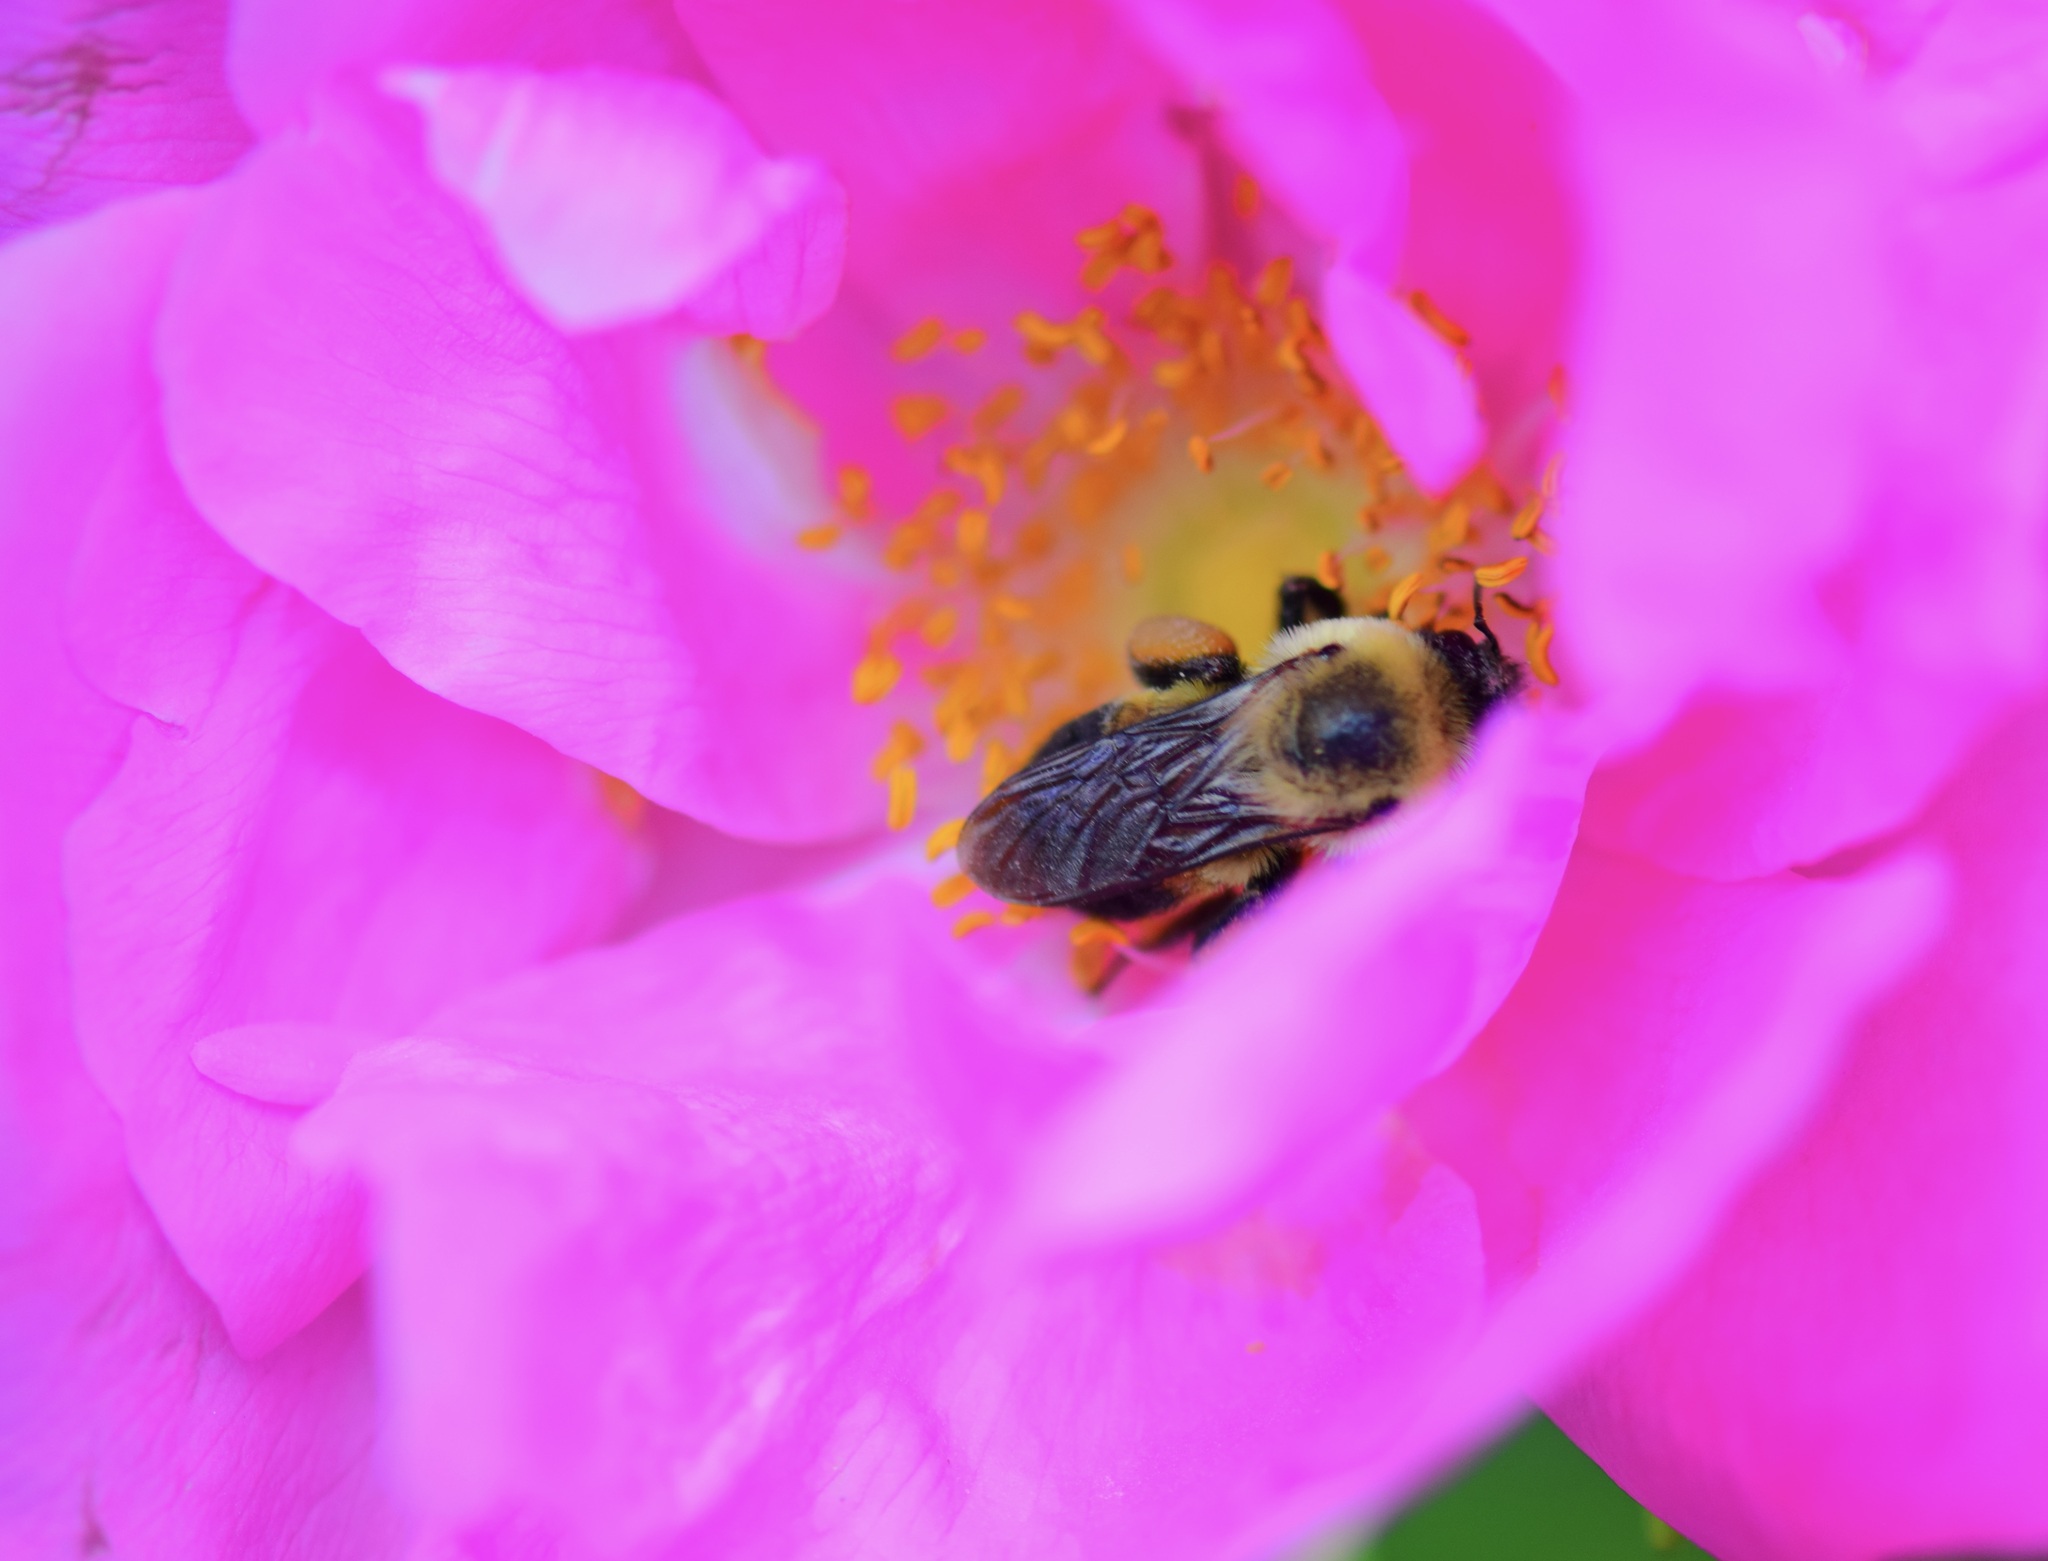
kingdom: Animalia
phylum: Arthropoda
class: Insecta
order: Hymenoptera
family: Apidae
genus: Bombus
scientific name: Bombus griseocollis
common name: Brown-belted bumble bee
